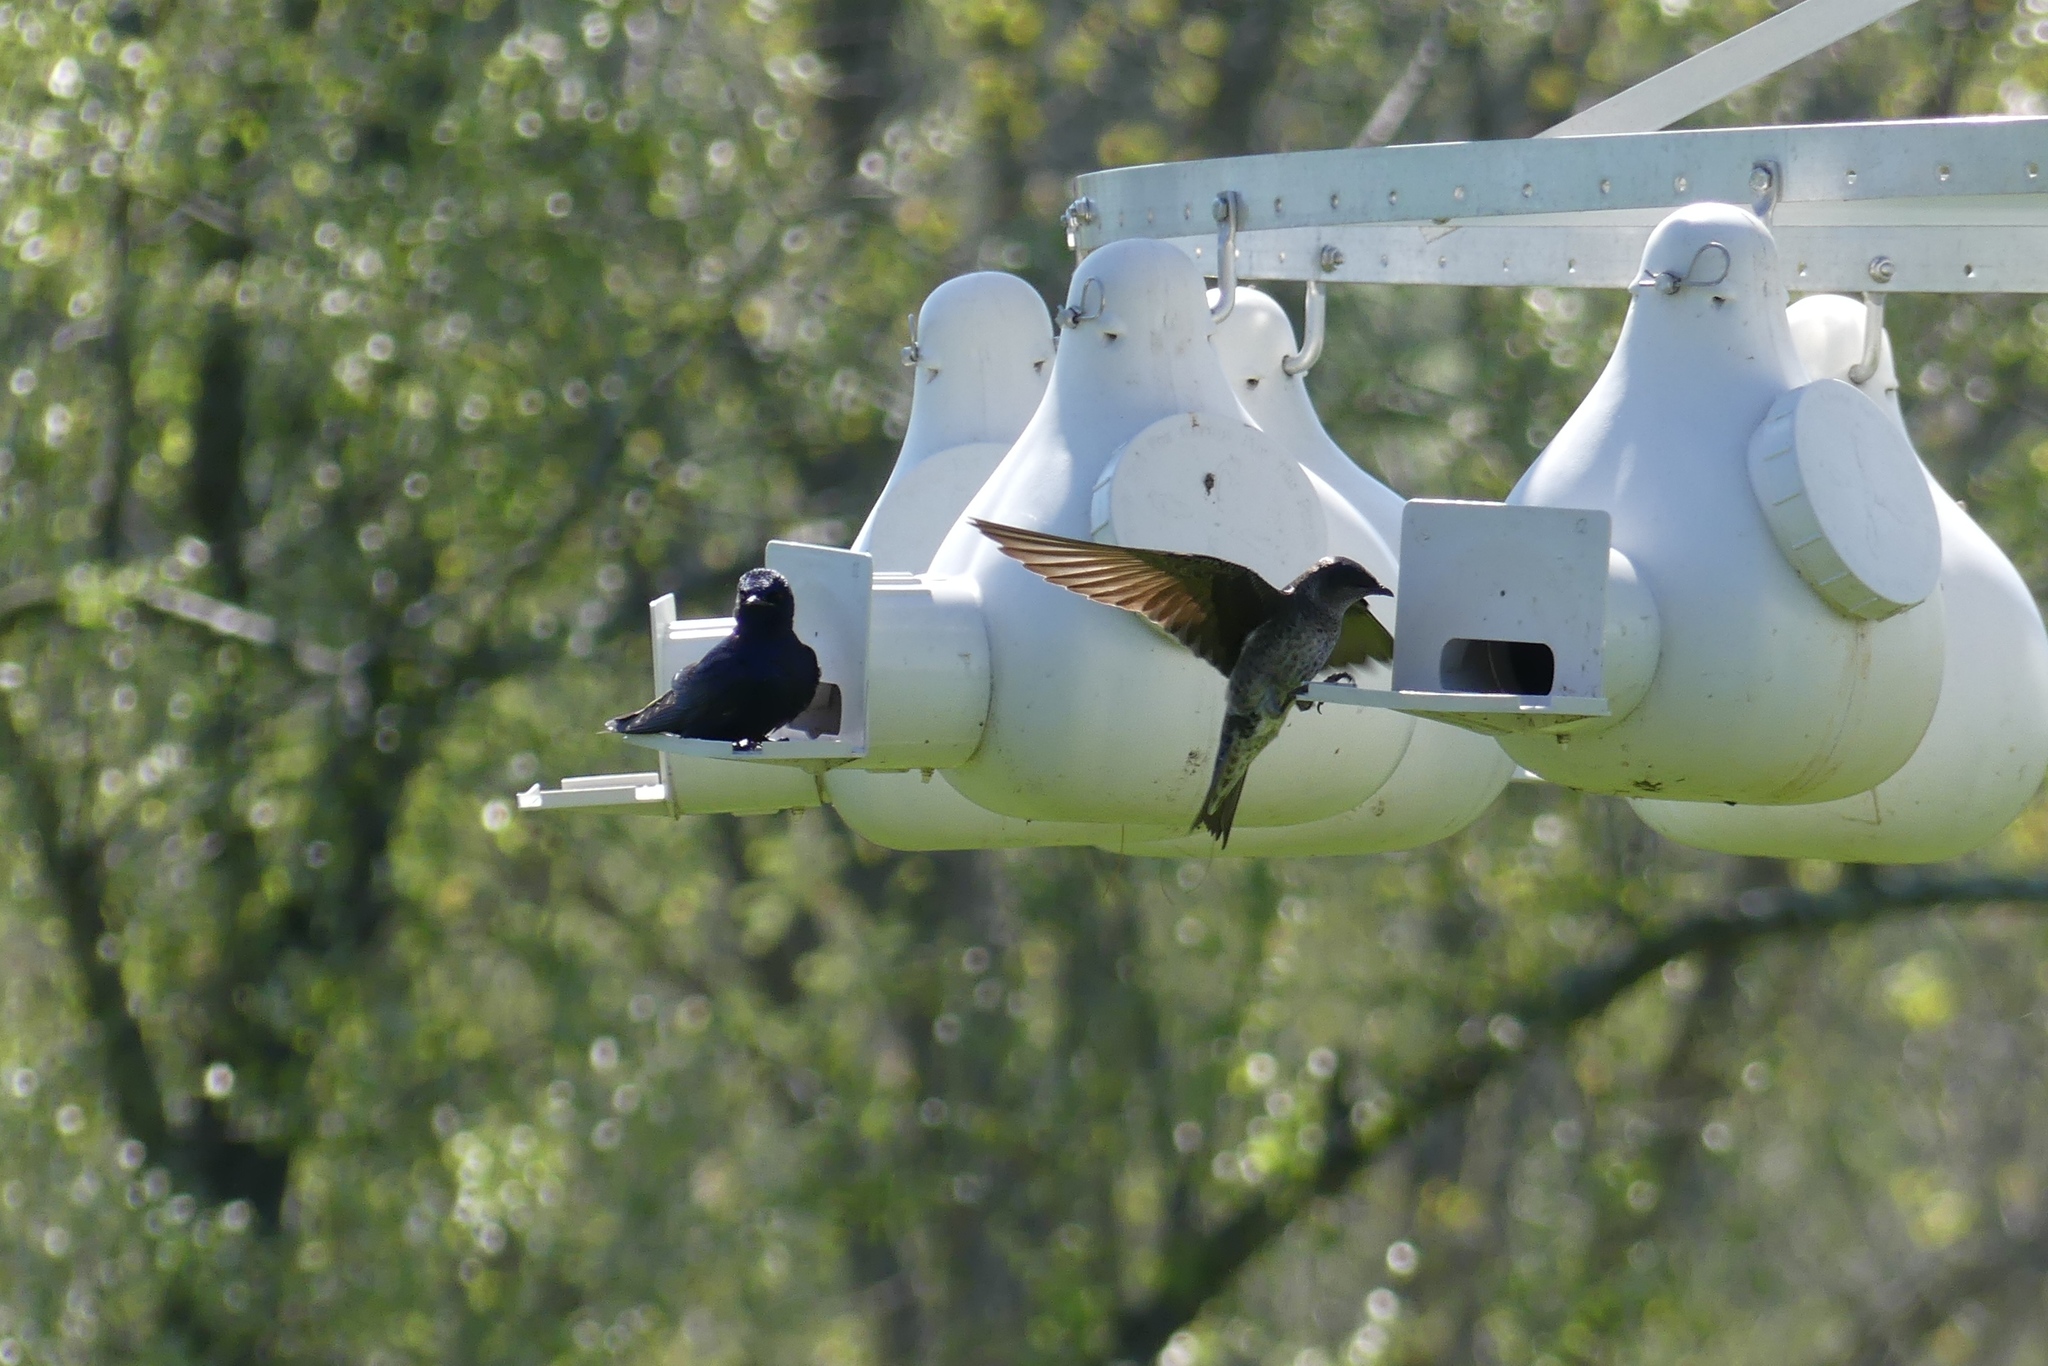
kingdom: Animalia
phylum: Chordata
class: Aves
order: Passeriformes
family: Hirundinidae
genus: Progne
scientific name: Progne subis
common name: Purple martin
